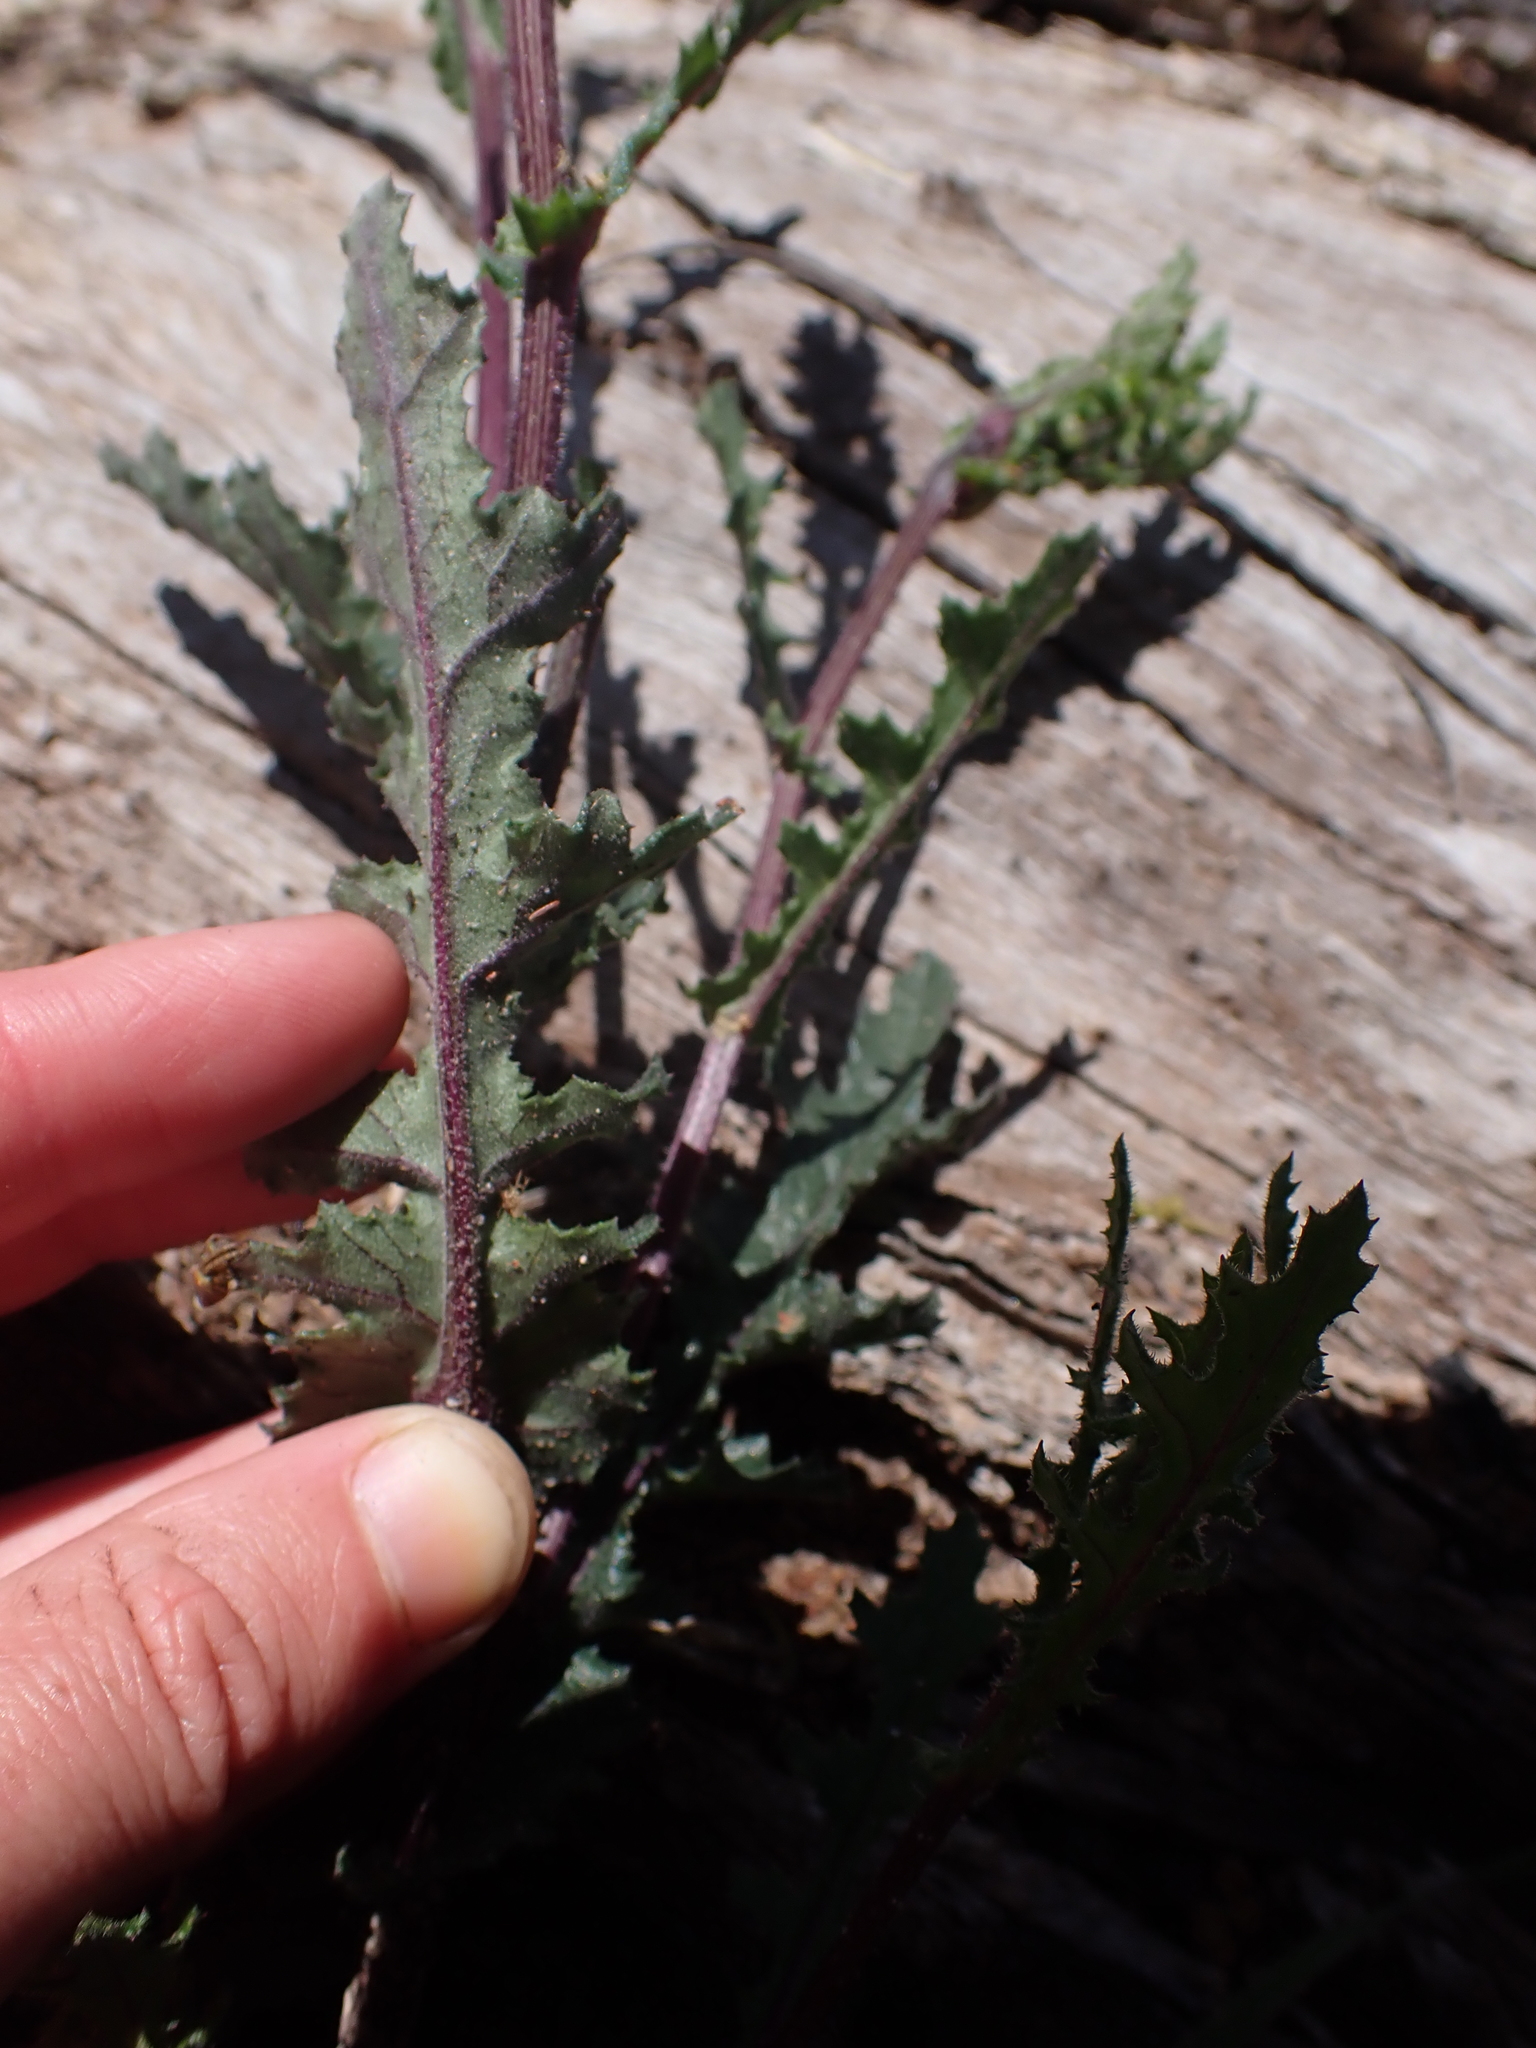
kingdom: Plantae
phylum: Tracheophyta
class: Magnoliopsida
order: Asterales
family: Asteraceae
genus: Senecio
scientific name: Senecio picridioides
